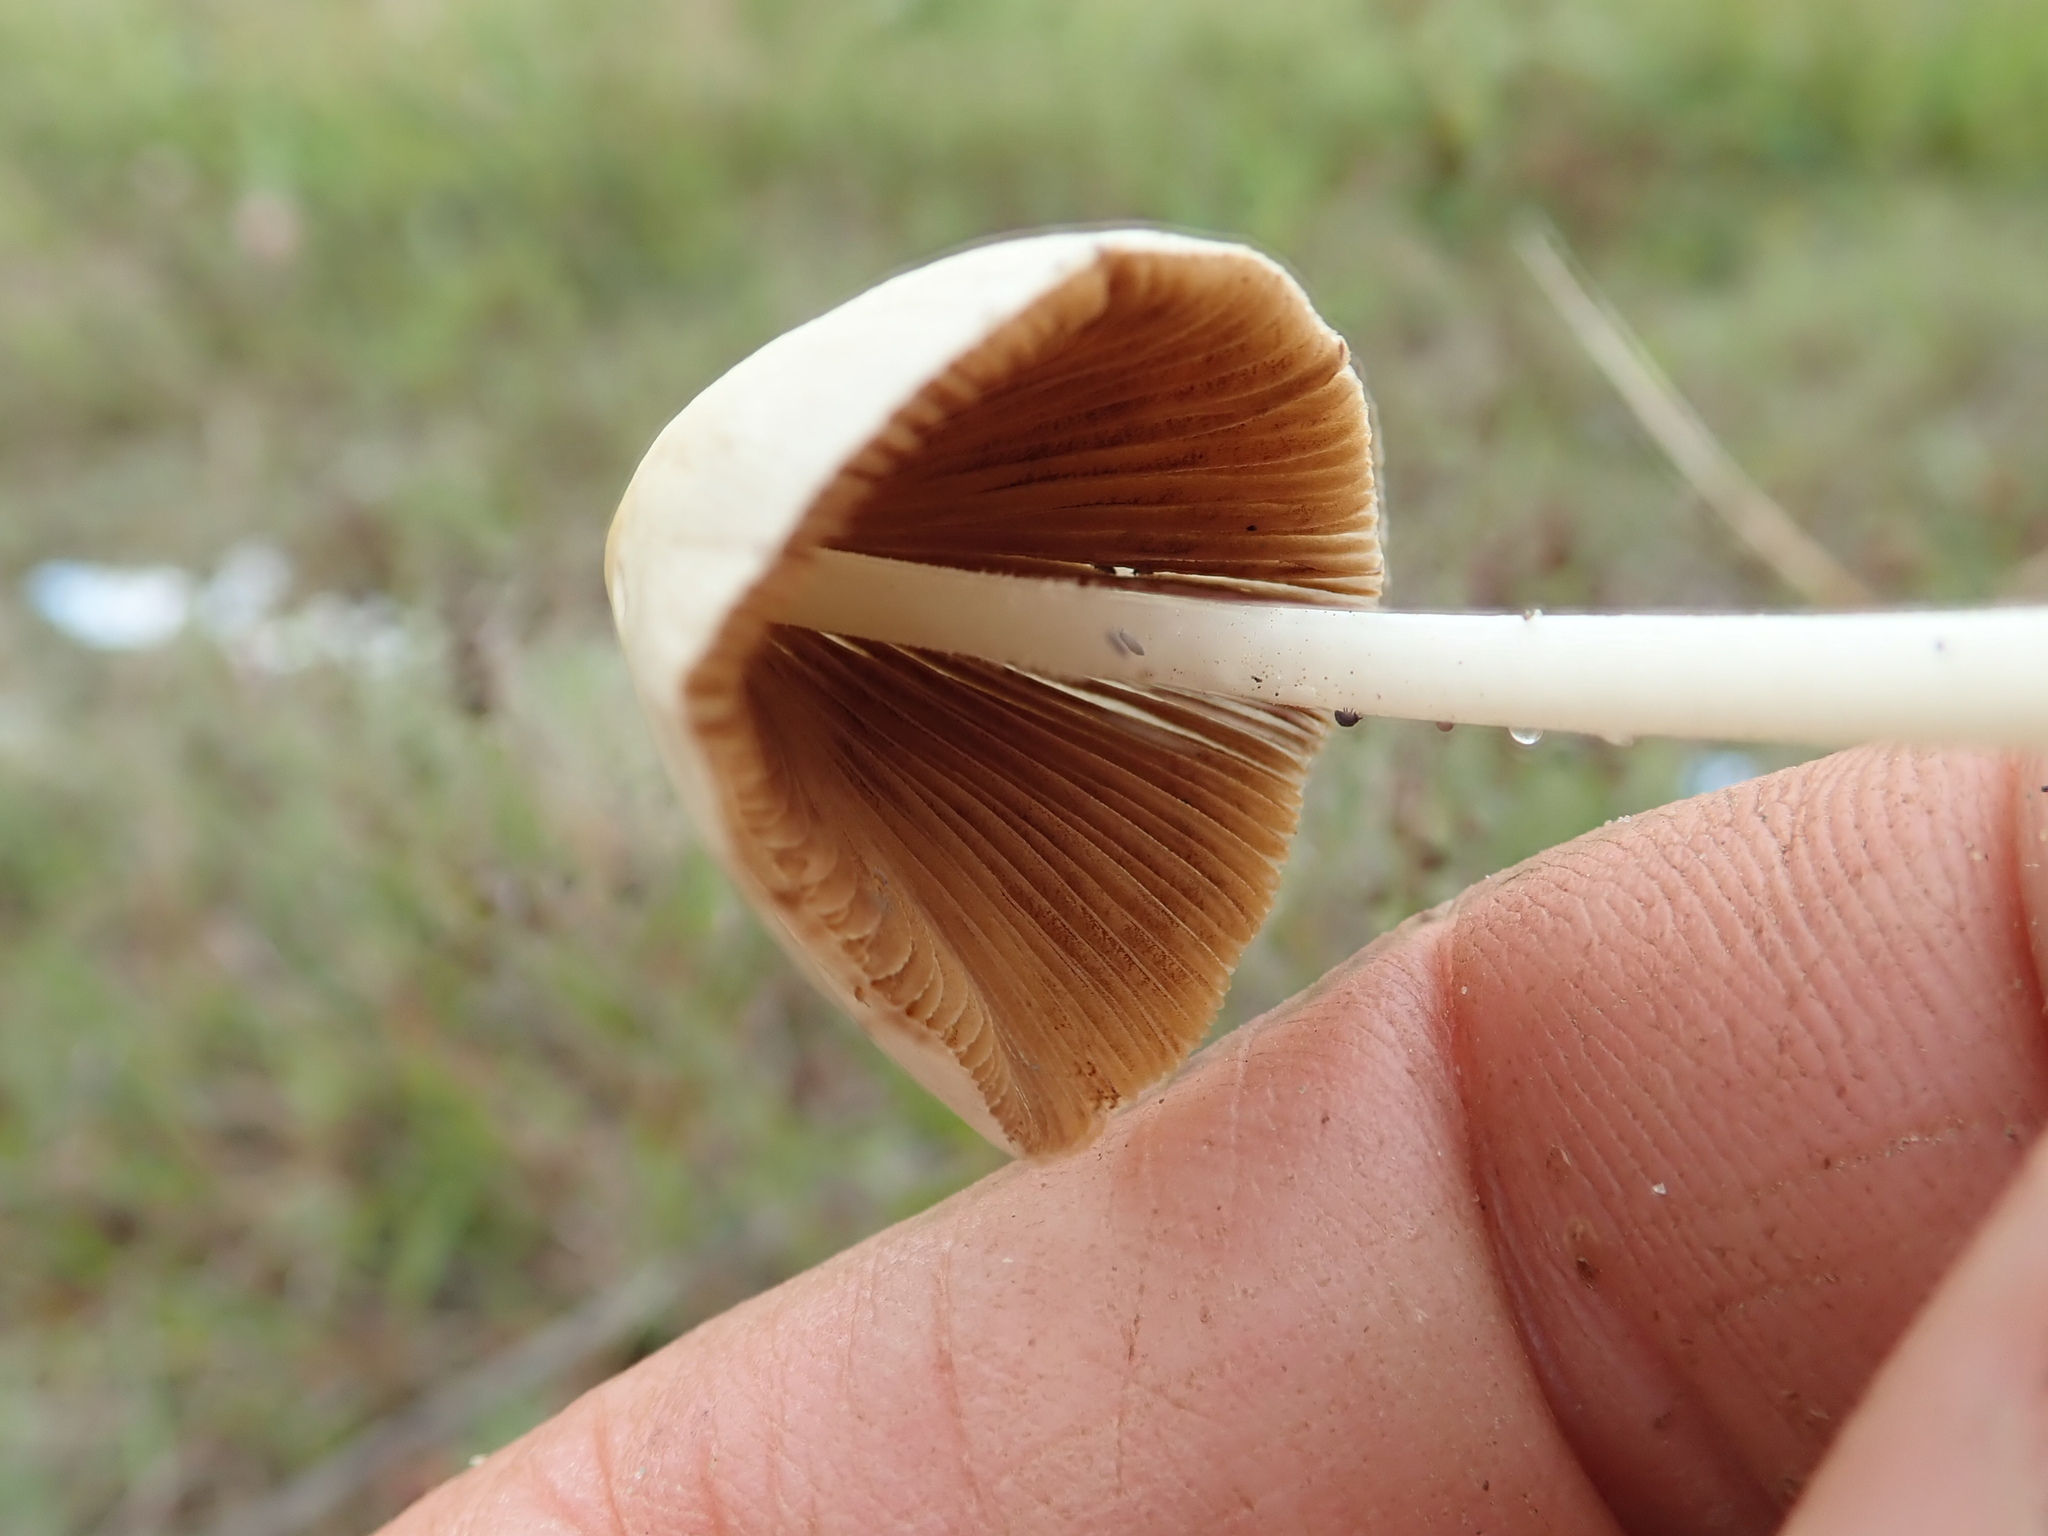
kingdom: Fungi
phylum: Basidiomycota
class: Agaricomycetes
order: Agaricales
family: Bolbitiaceae
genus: Conocybe
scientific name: Conocybe apala
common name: Milky conecap
